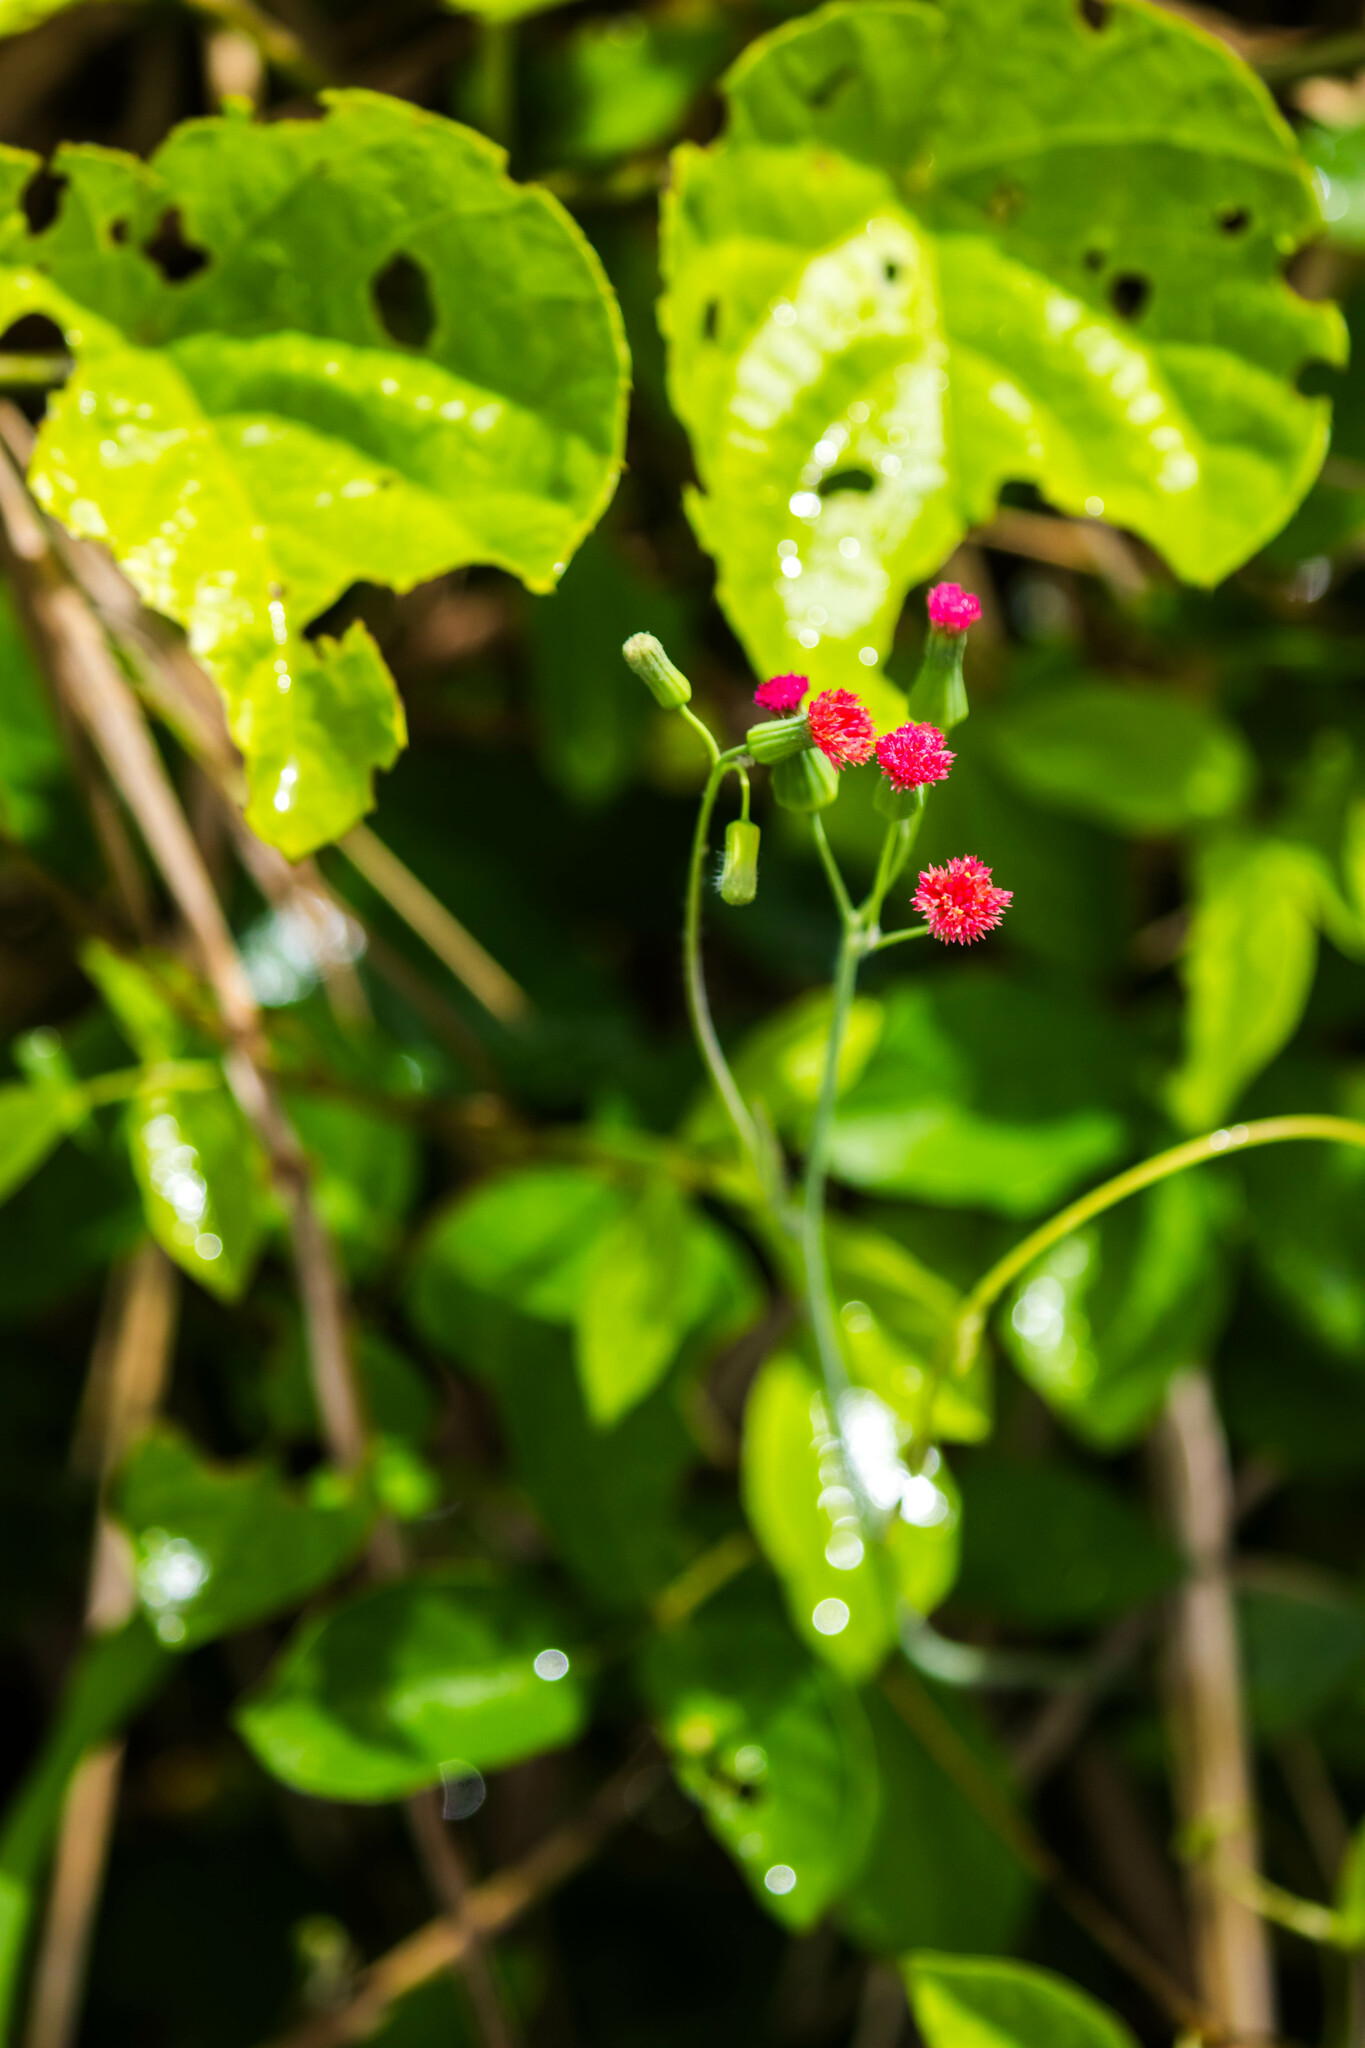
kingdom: Plantae
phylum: Tracheophyta
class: Magnoliopsida
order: Asterales
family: Asteraceae
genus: Emilia
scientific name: Emilia fosbergii
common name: Florida tasselflower
